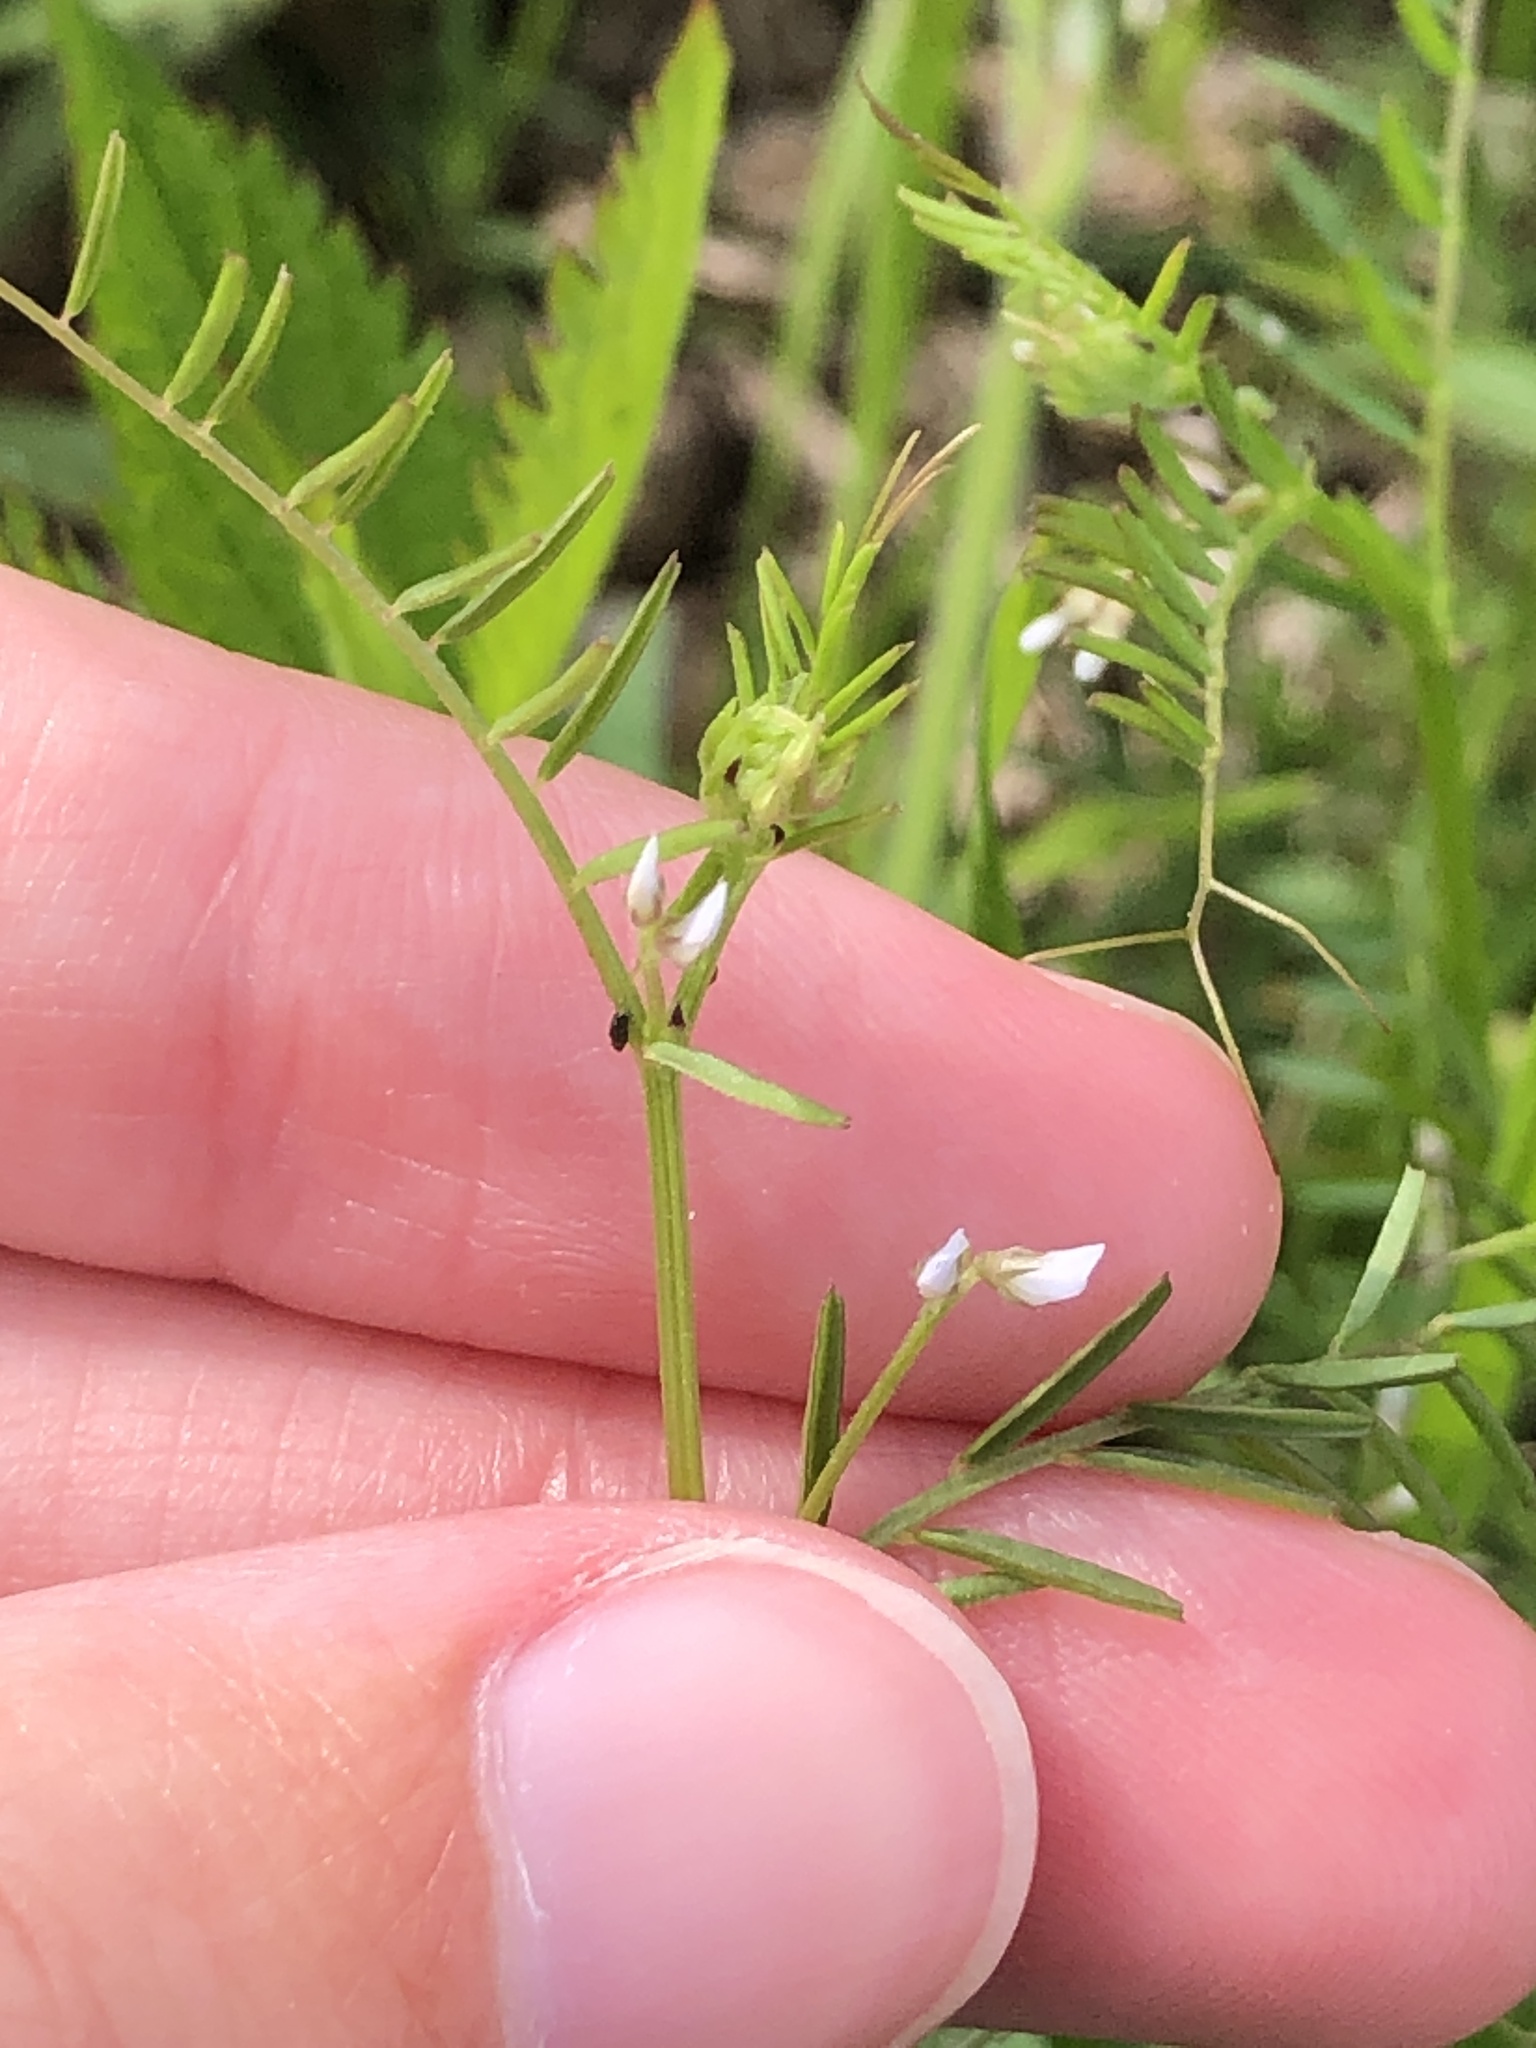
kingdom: Plantae
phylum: Tracheophyta
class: Magnoliopsida
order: Fabales
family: Fabaceae
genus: Vicia
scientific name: Vicia hirsuta
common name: Tiny vetch
